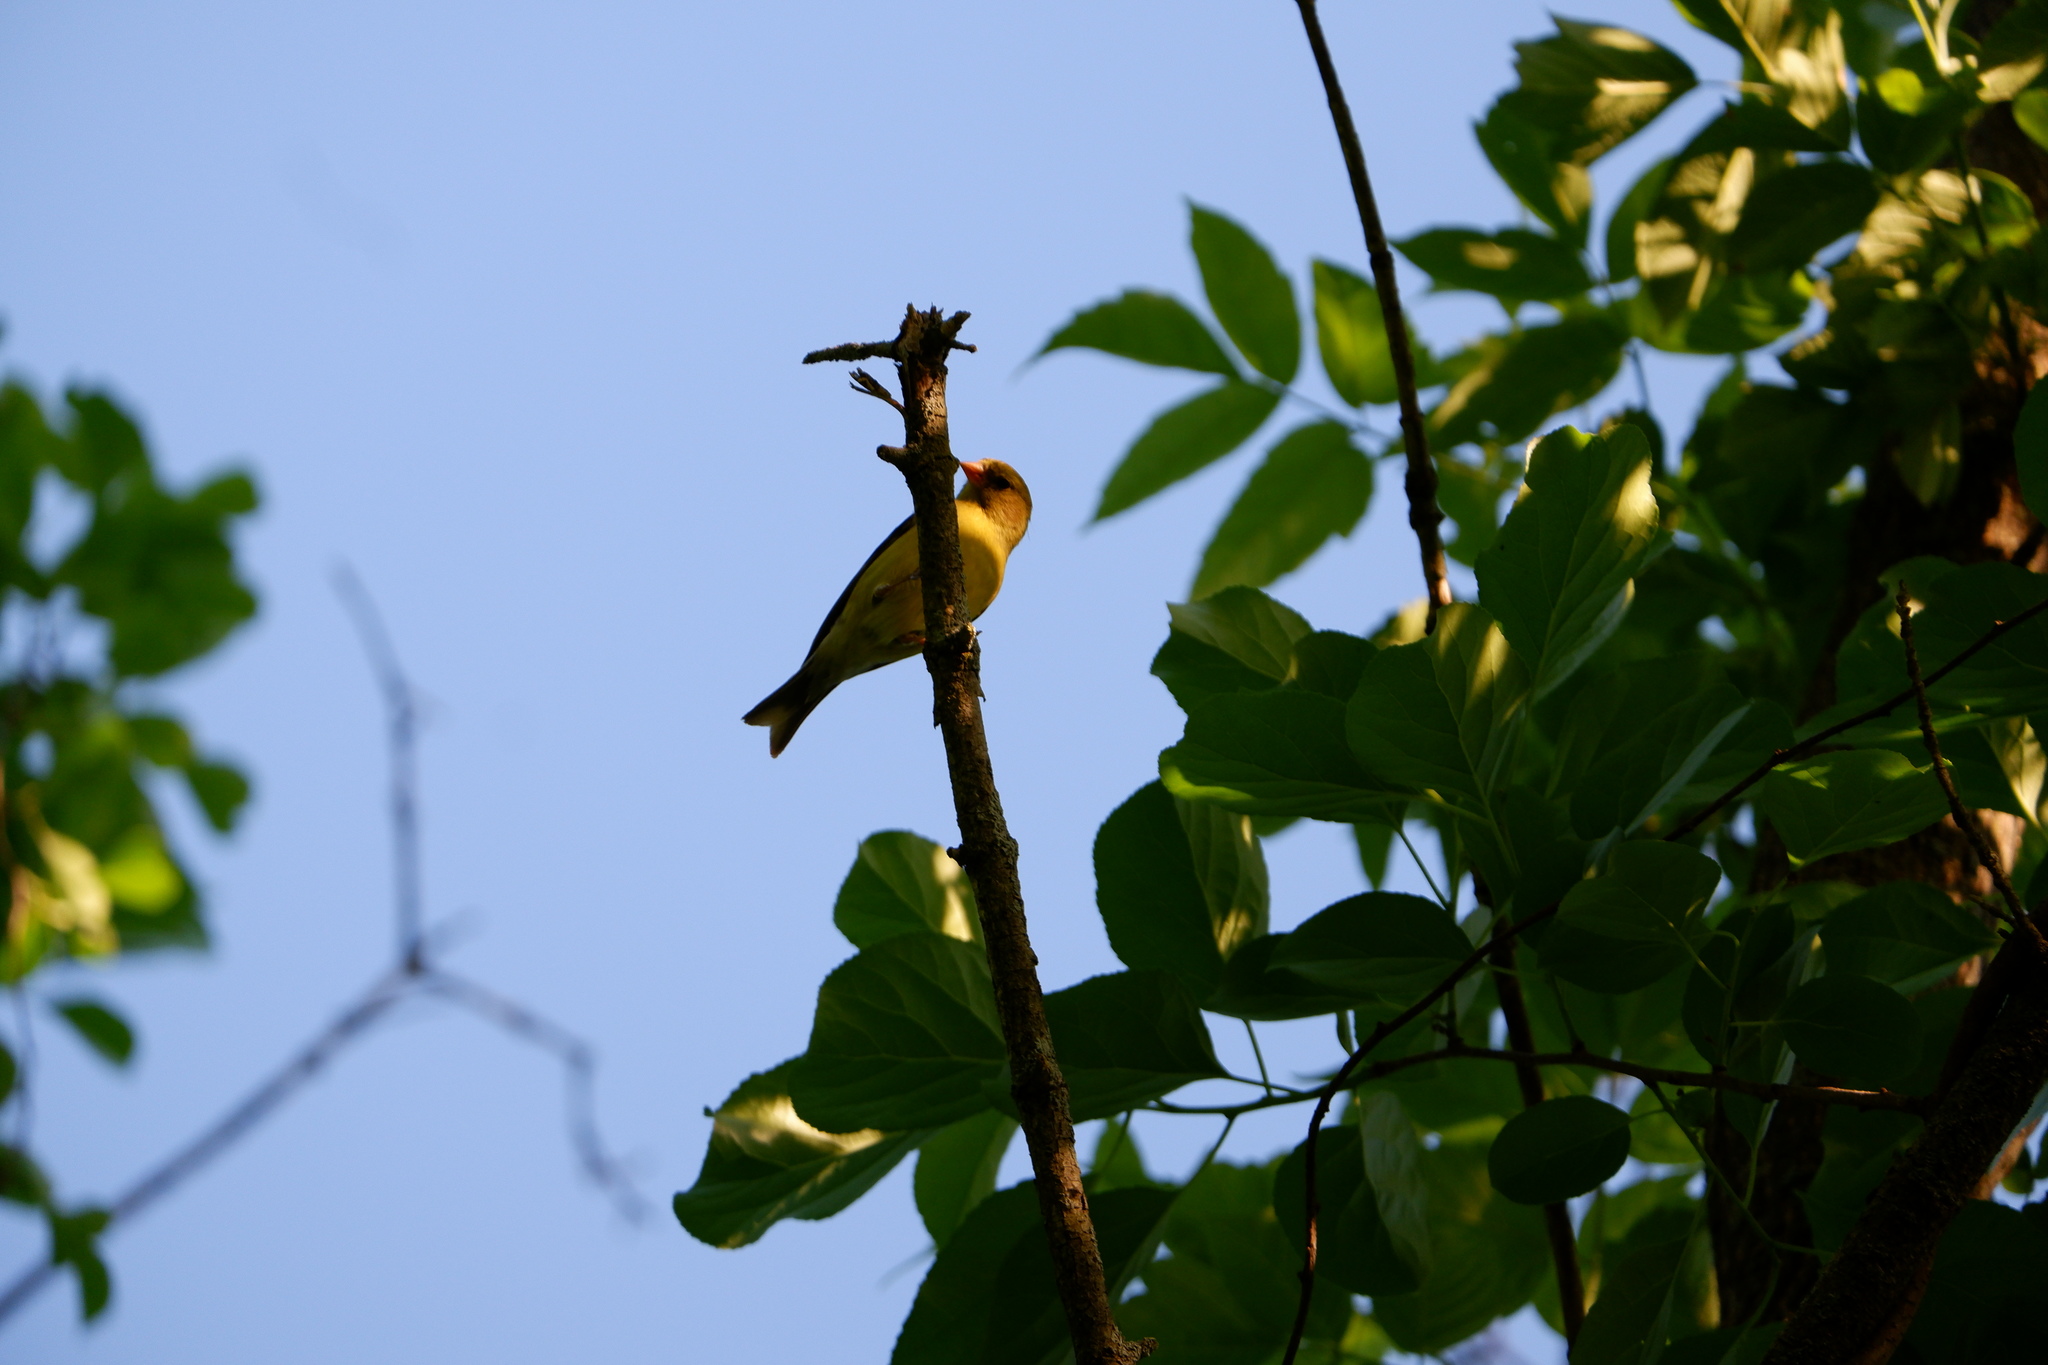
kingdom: Animalia
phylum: Chordata
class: Aves
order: Passeriformes
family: Fringillidae
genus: Spinus
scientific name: Spinus tristis
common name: American goldfinch
